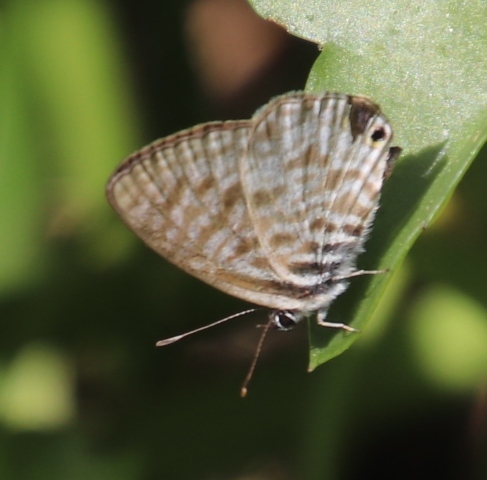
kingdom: Animalia
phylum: Arthropoda
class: Insecta
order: Lepidoptera
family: Lycaenidae
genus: Leptotes
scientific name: Leptotes
